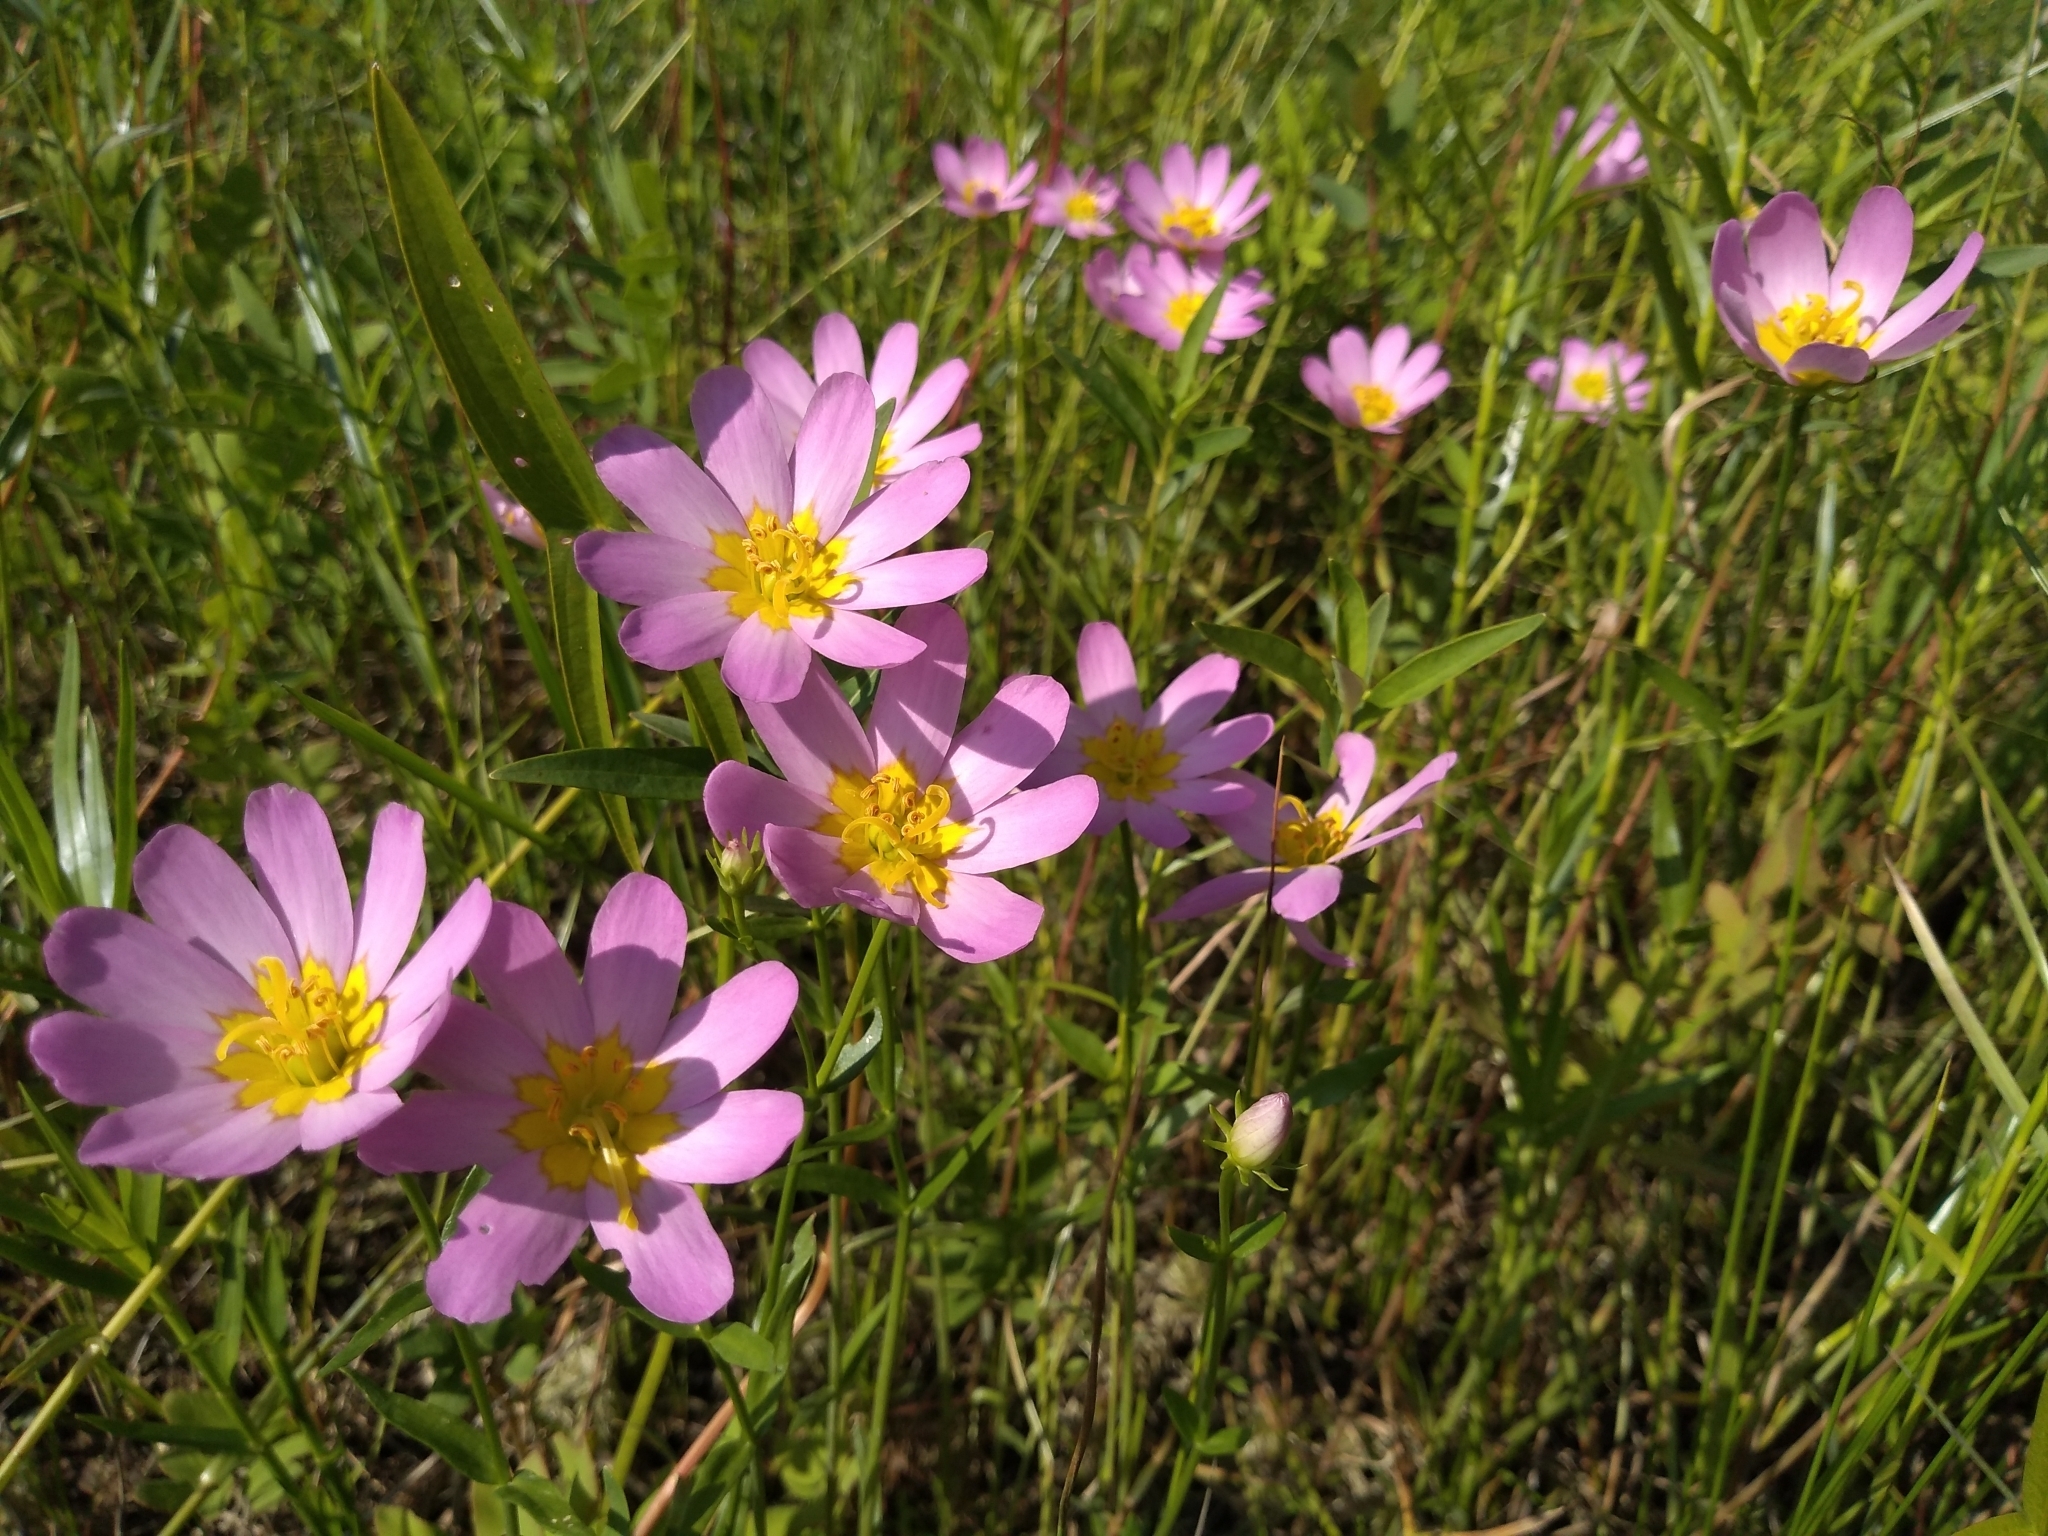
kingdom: Plantae
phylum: Tracheophyta
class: Magnoliopsida
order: Gentianales
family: Gentianaceae
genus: Sabatia
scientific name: Sabatia kennedyana
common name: Plymouth gentian
